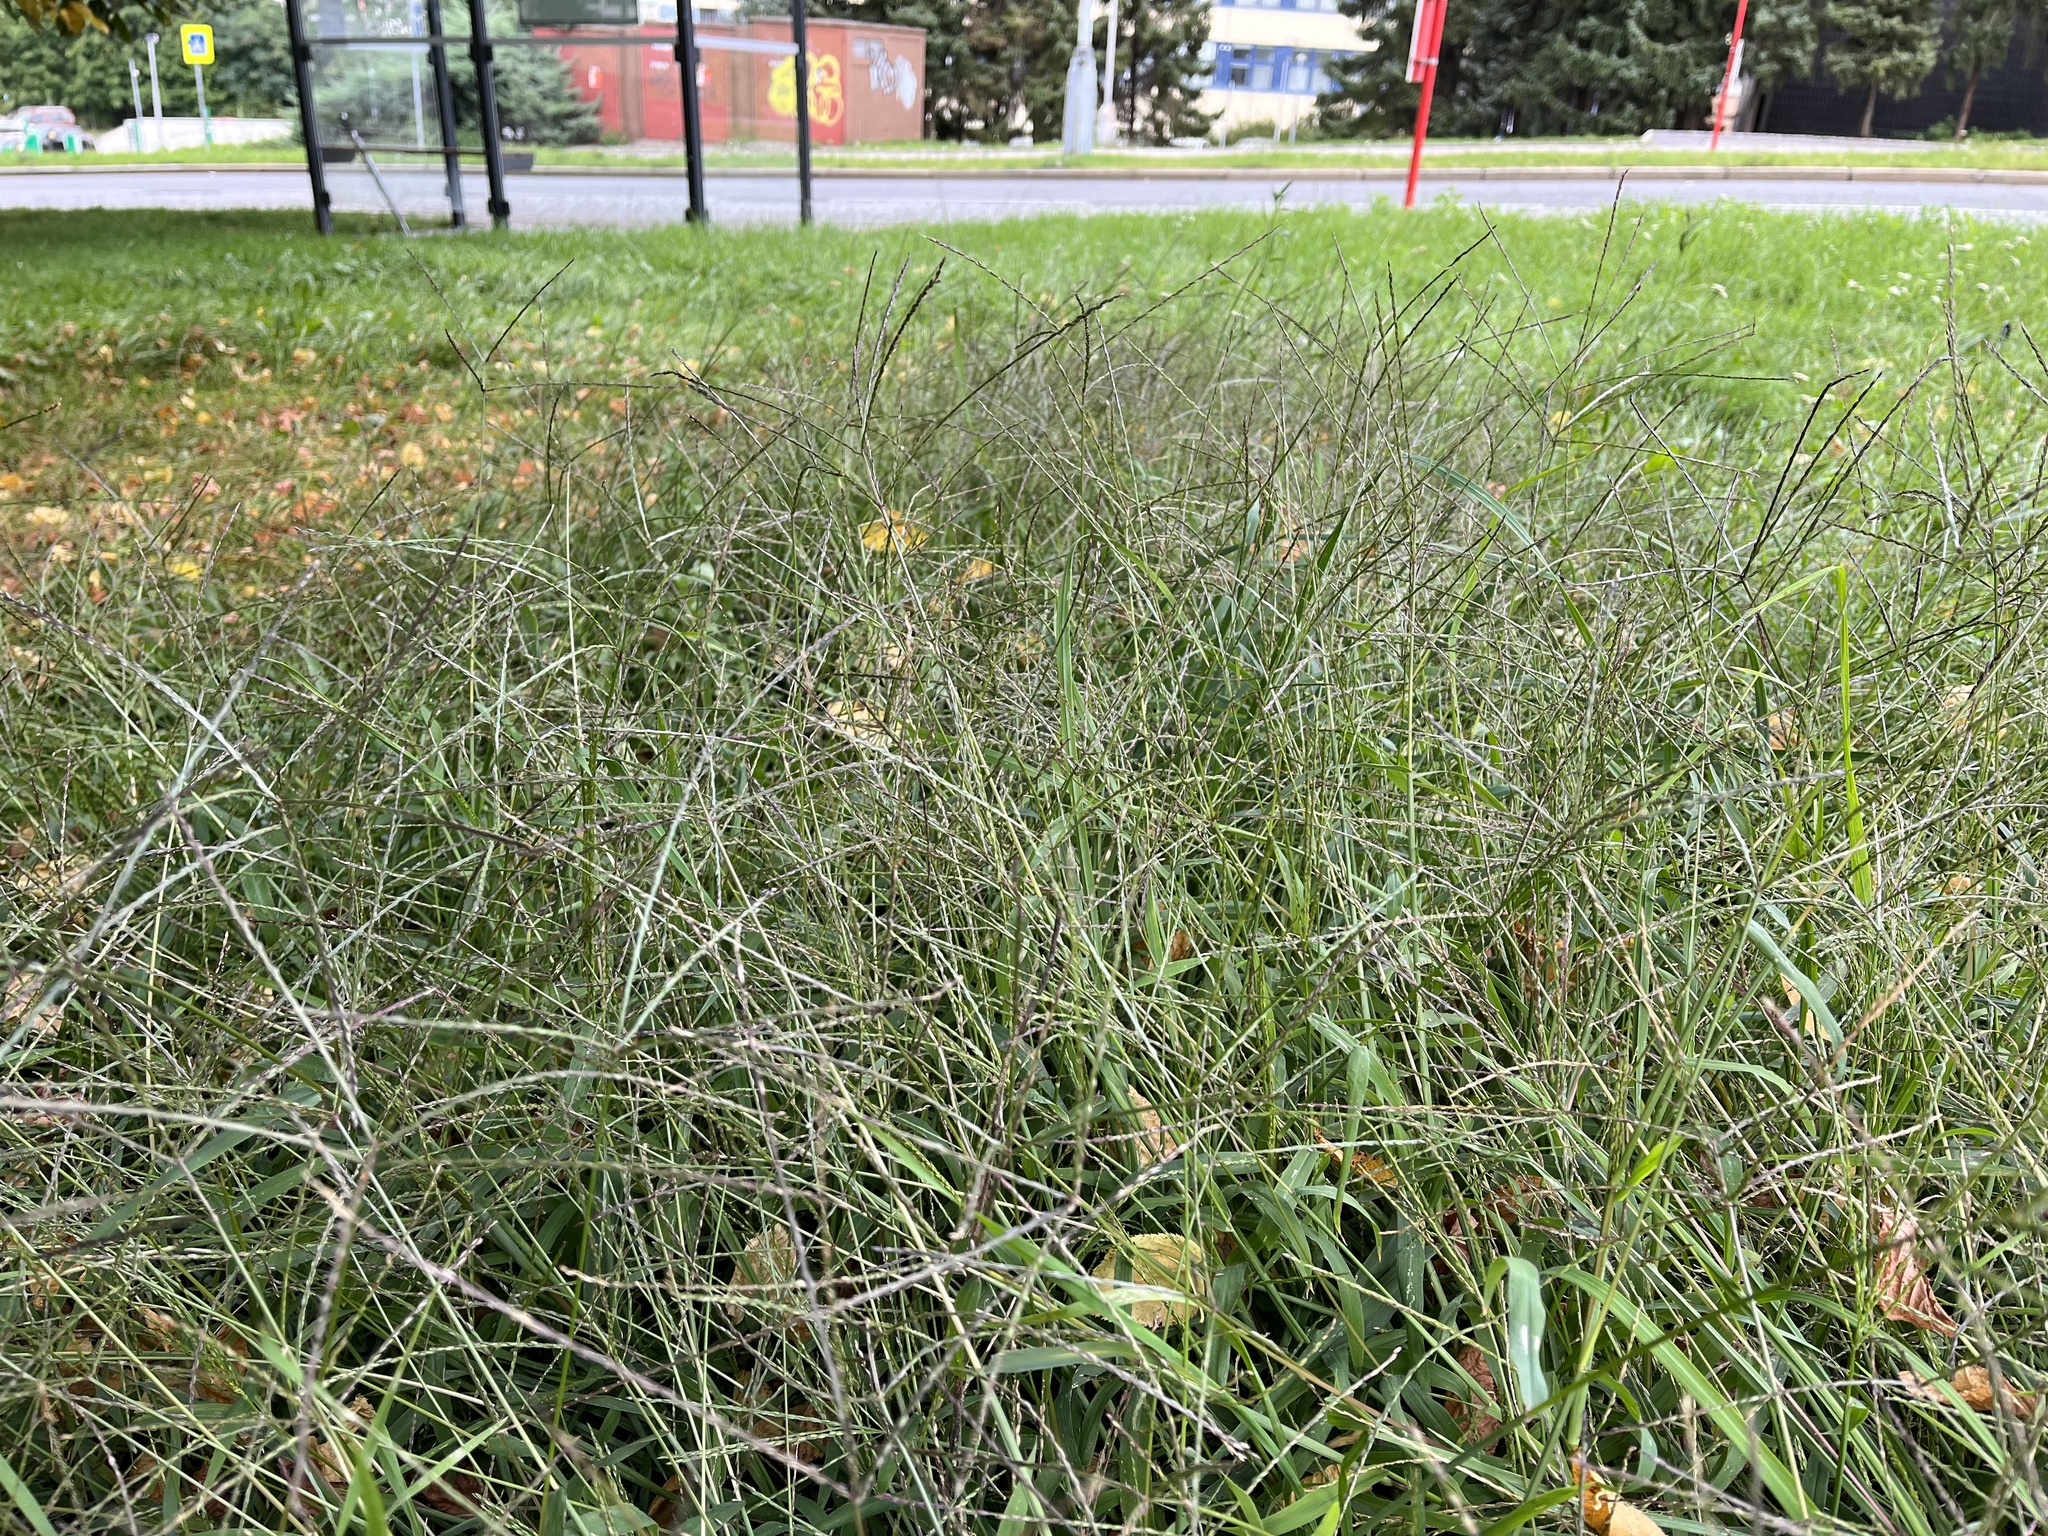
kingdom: Plantae
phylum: Tracheophyta
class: Liliopsida
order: Poales
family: Poaceae
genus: Digitaria
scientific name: Digitaria sanguinalis
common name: Hairy crabgrass
